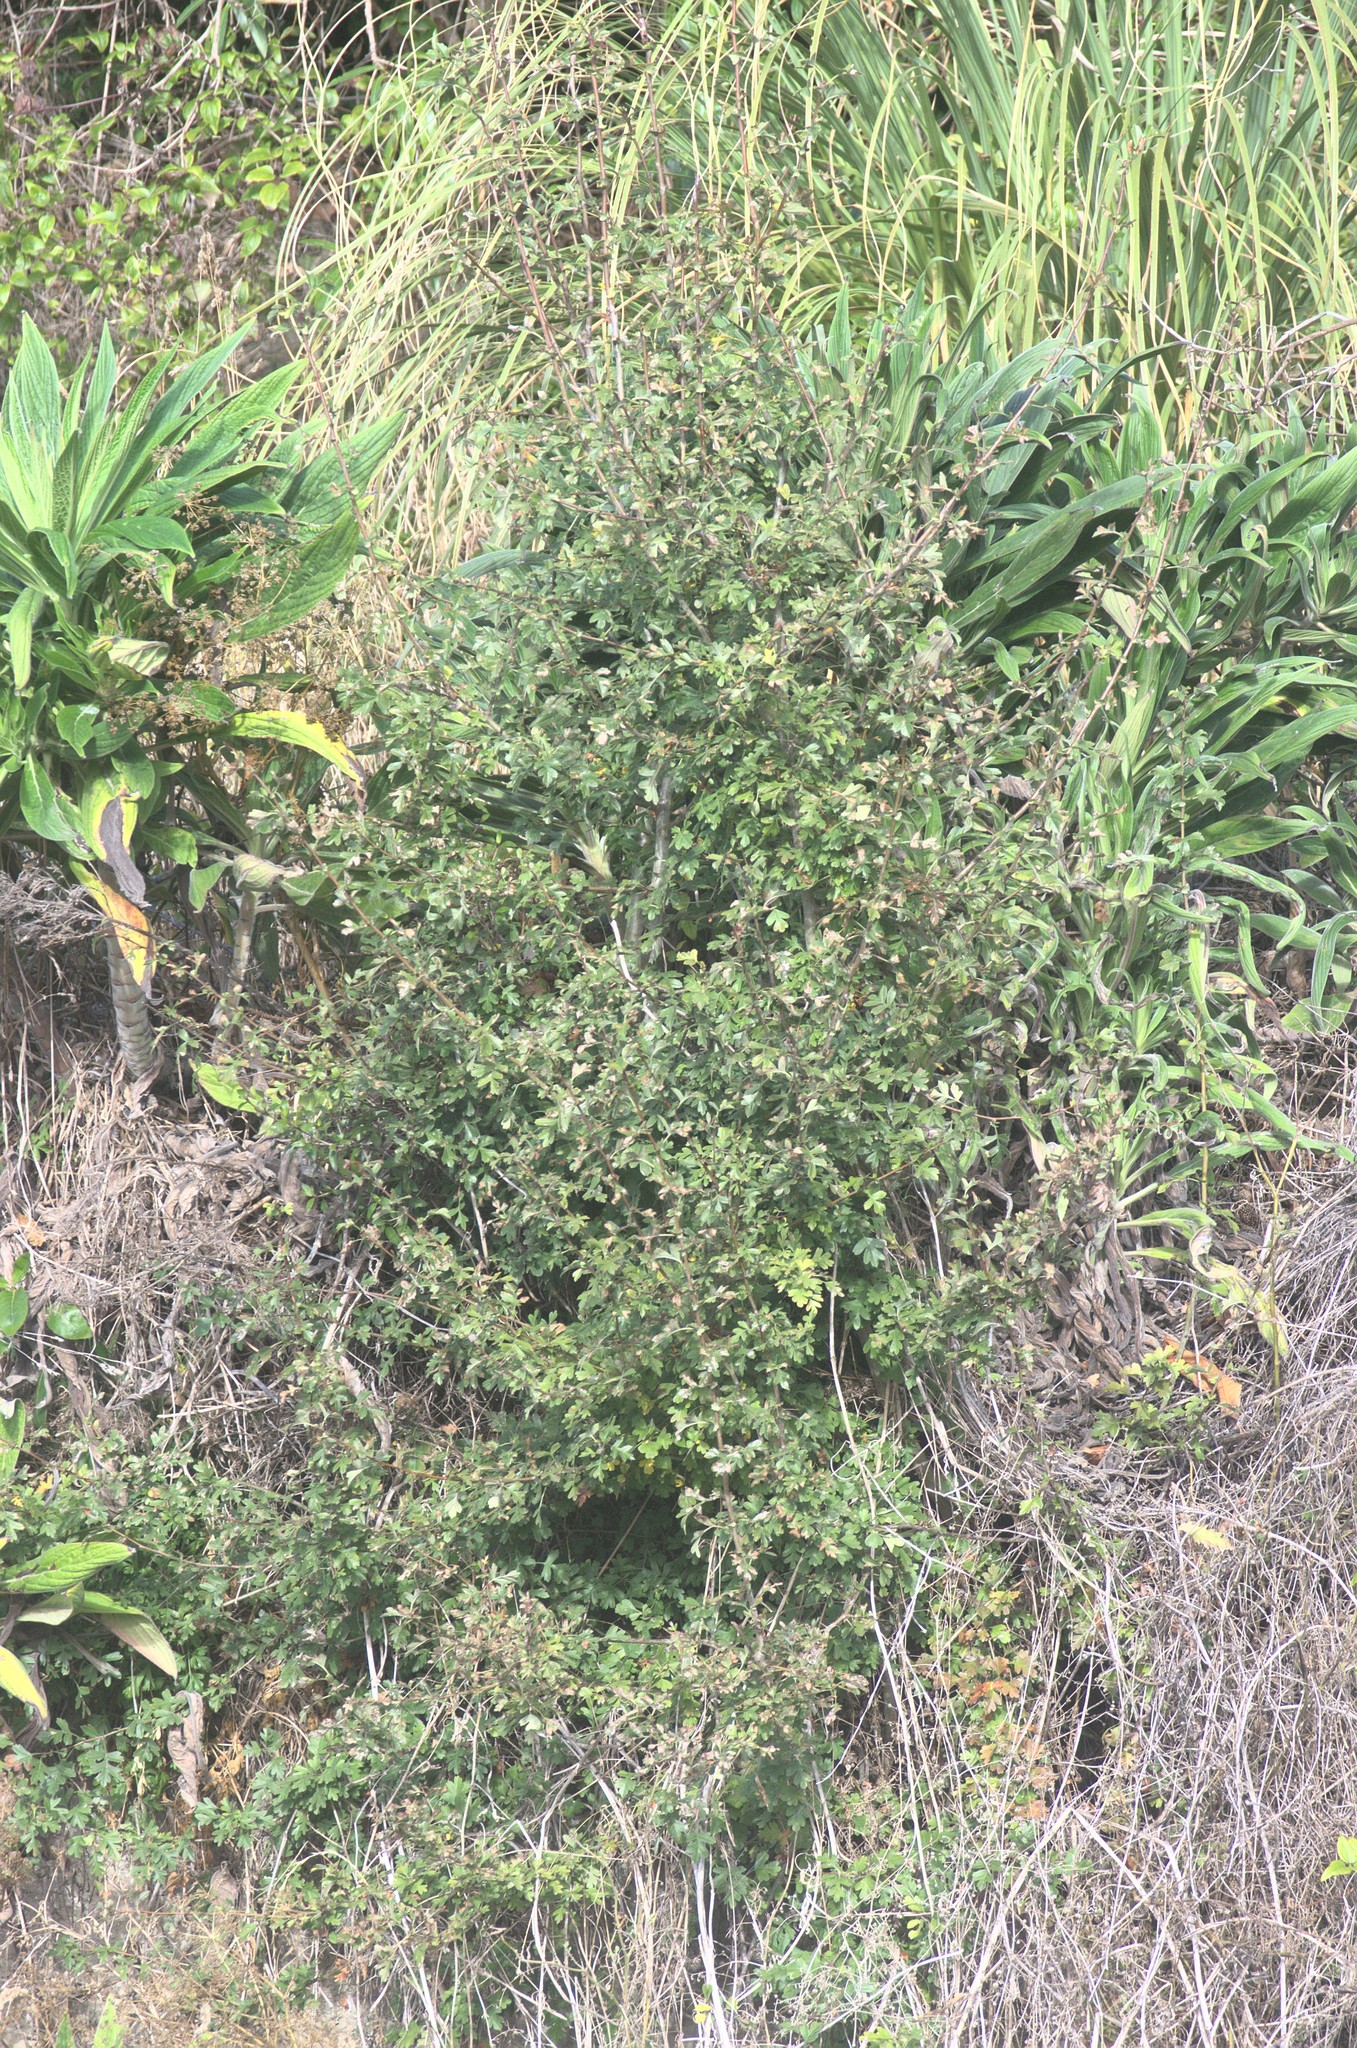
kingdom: Plantae
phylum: Tracheophyta
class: Magnoliopsida
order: Rosales
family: Rosaceae
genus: Crataegus
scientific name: Crataegus monogyna
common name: Hawthorn
